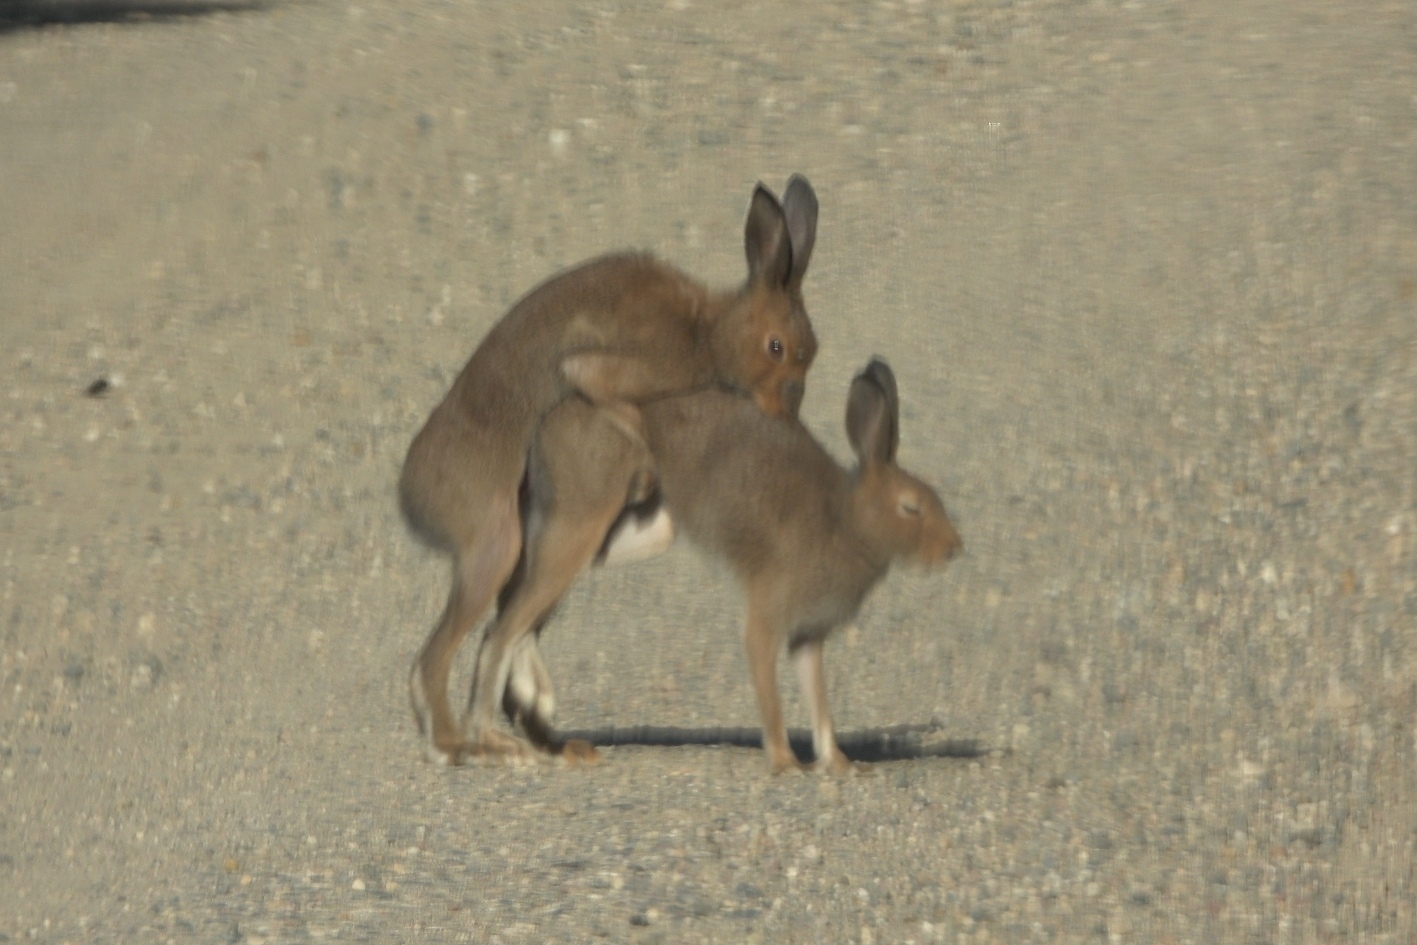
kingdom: Animalia
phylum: Chordata
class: Mammalia
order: Lagomorpha
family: Leporidae
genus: Lepus
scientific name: Lepus timidus
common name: Mountain hare
